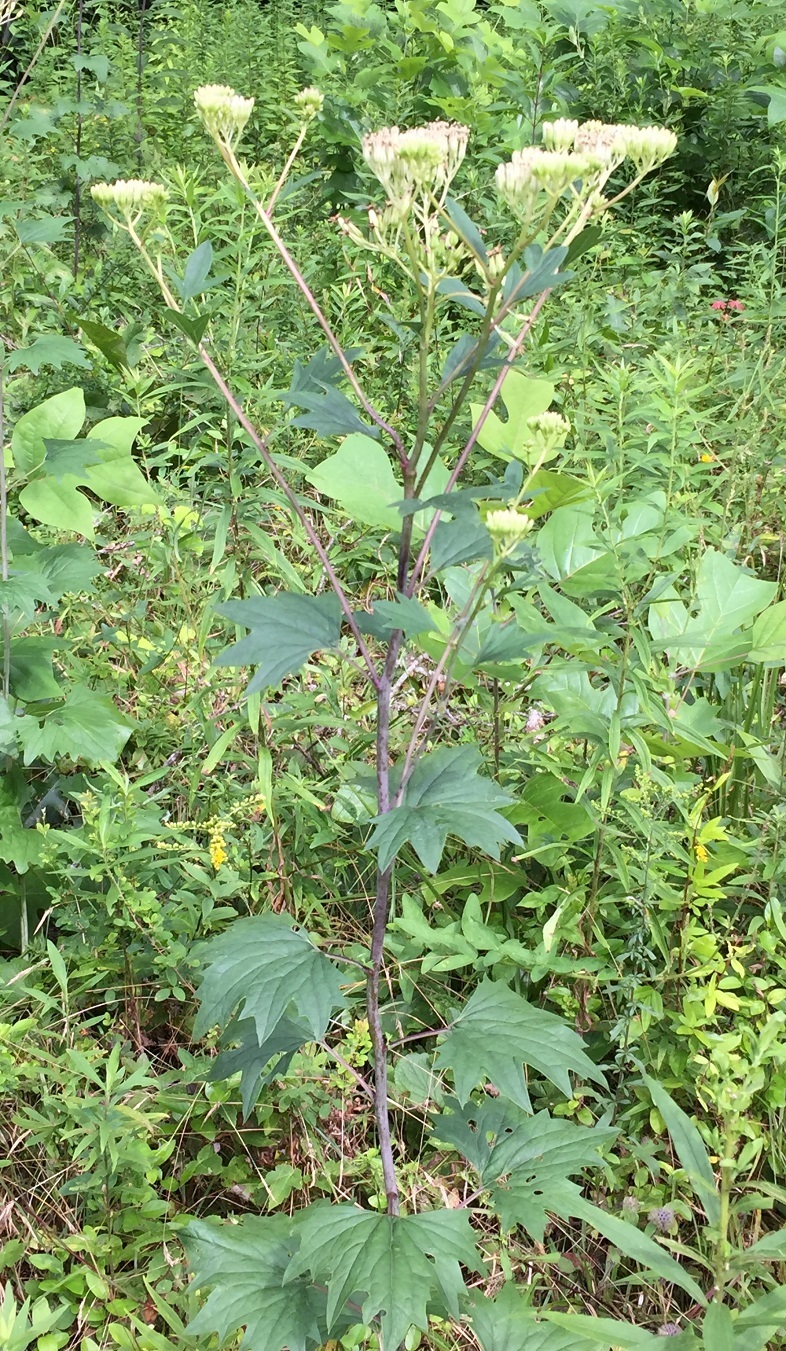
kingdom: Plantae
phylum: Tracheophyta
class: Magnoliopsida
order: Asterales
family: Asteraceae
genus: Arnoglossum
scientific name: Arnoglossum atriplicifolium
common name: Pale indian-plantain
